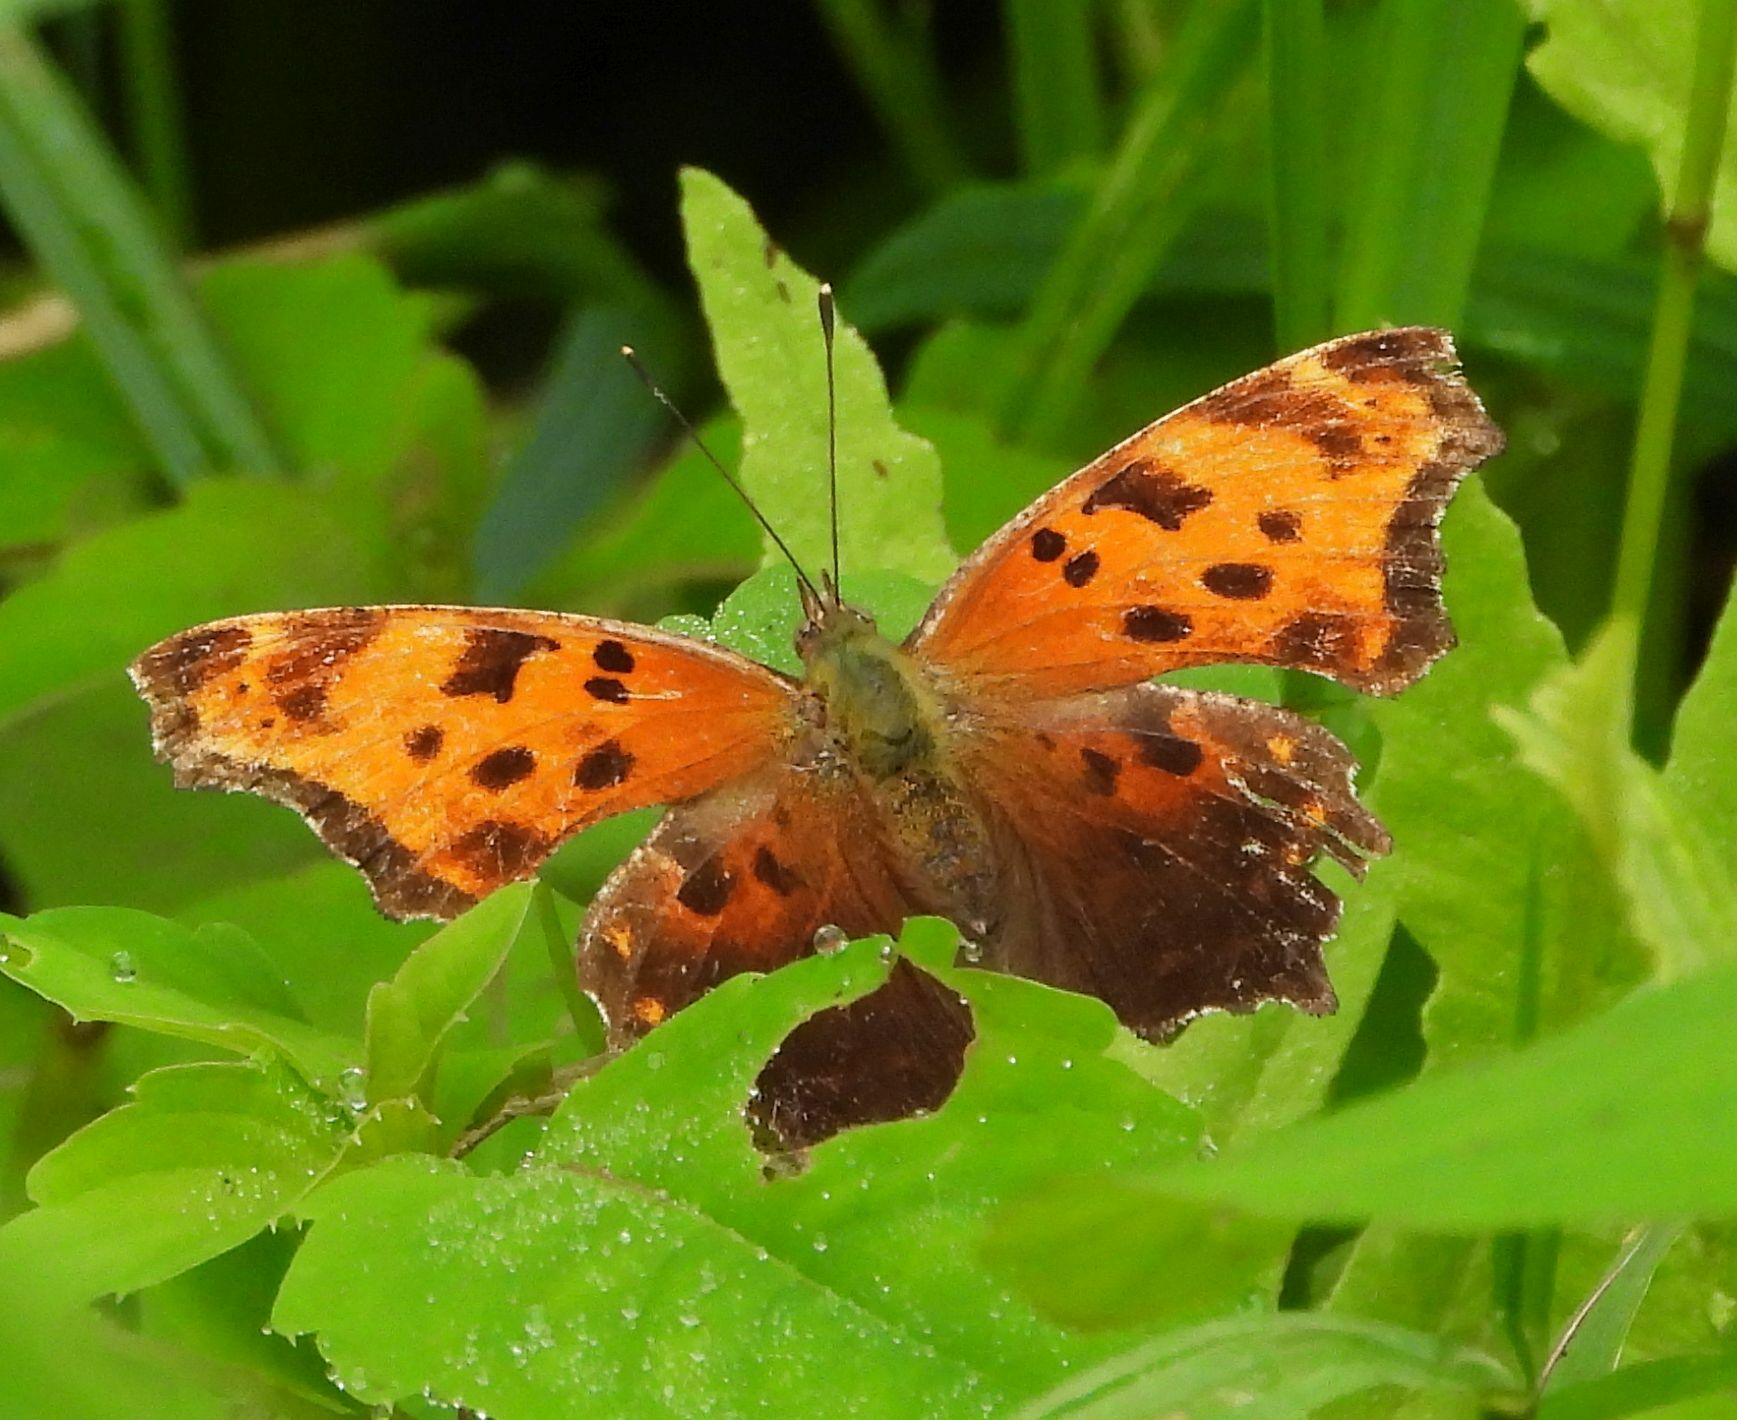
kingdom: Animalia
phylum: Arthropoda
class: Insecta
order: Lepidoptera
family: Nymphalidae
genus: Polygonia
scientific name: Polygonia comma
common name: Eastern comma
